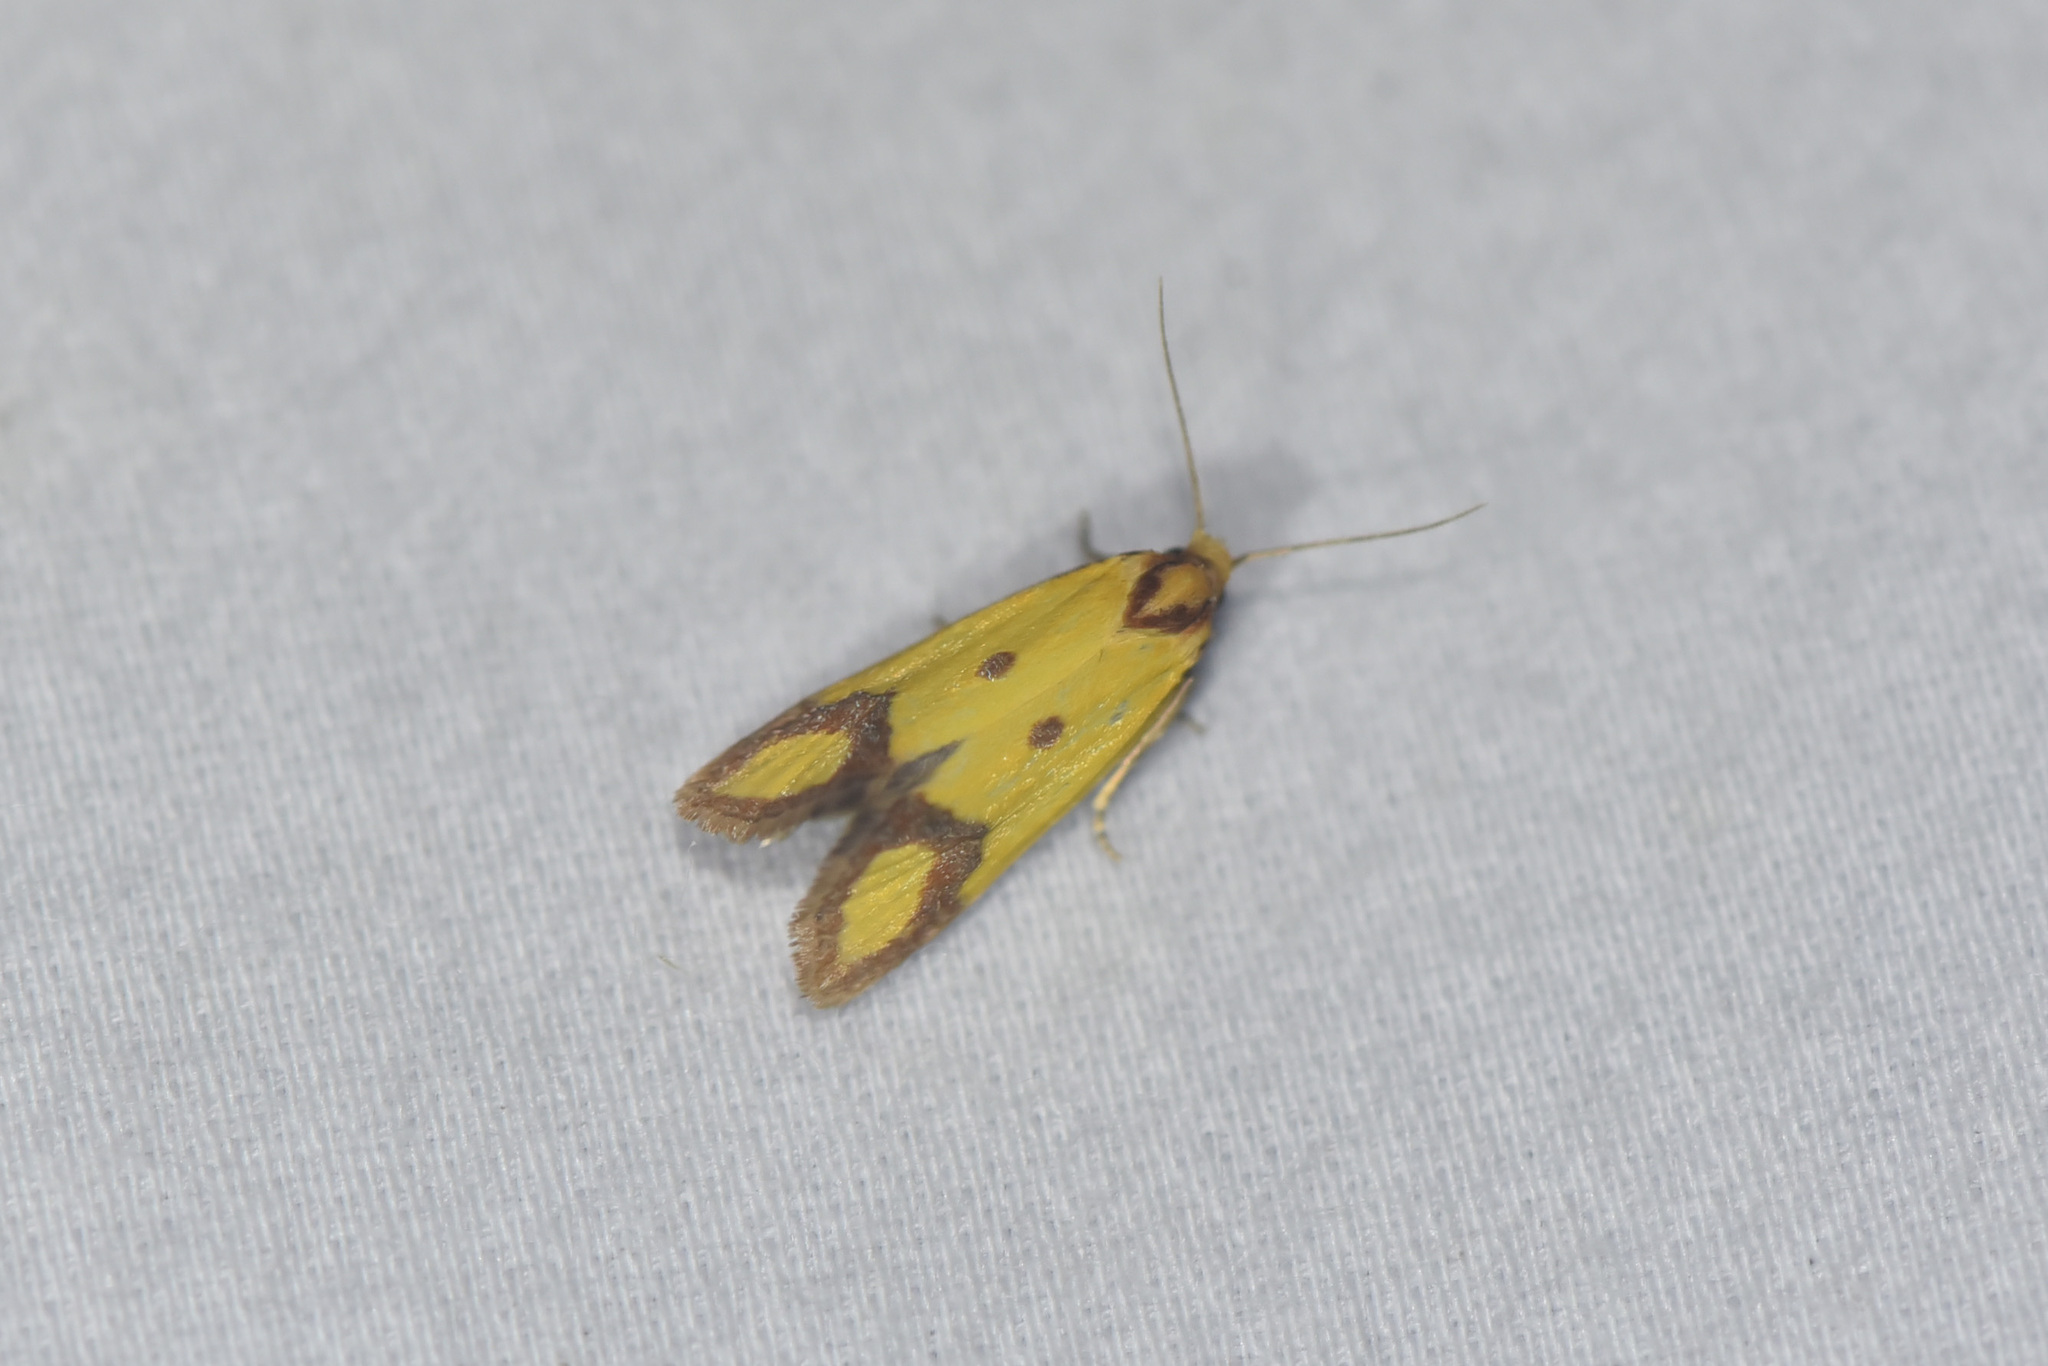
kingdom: Animalia
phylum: Arthropoda
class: Insecta
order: Lepidoptera
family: Tortricidae
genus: Agapeta
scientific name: Agapeta zoegana
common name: Sulfur knapweed root moth
